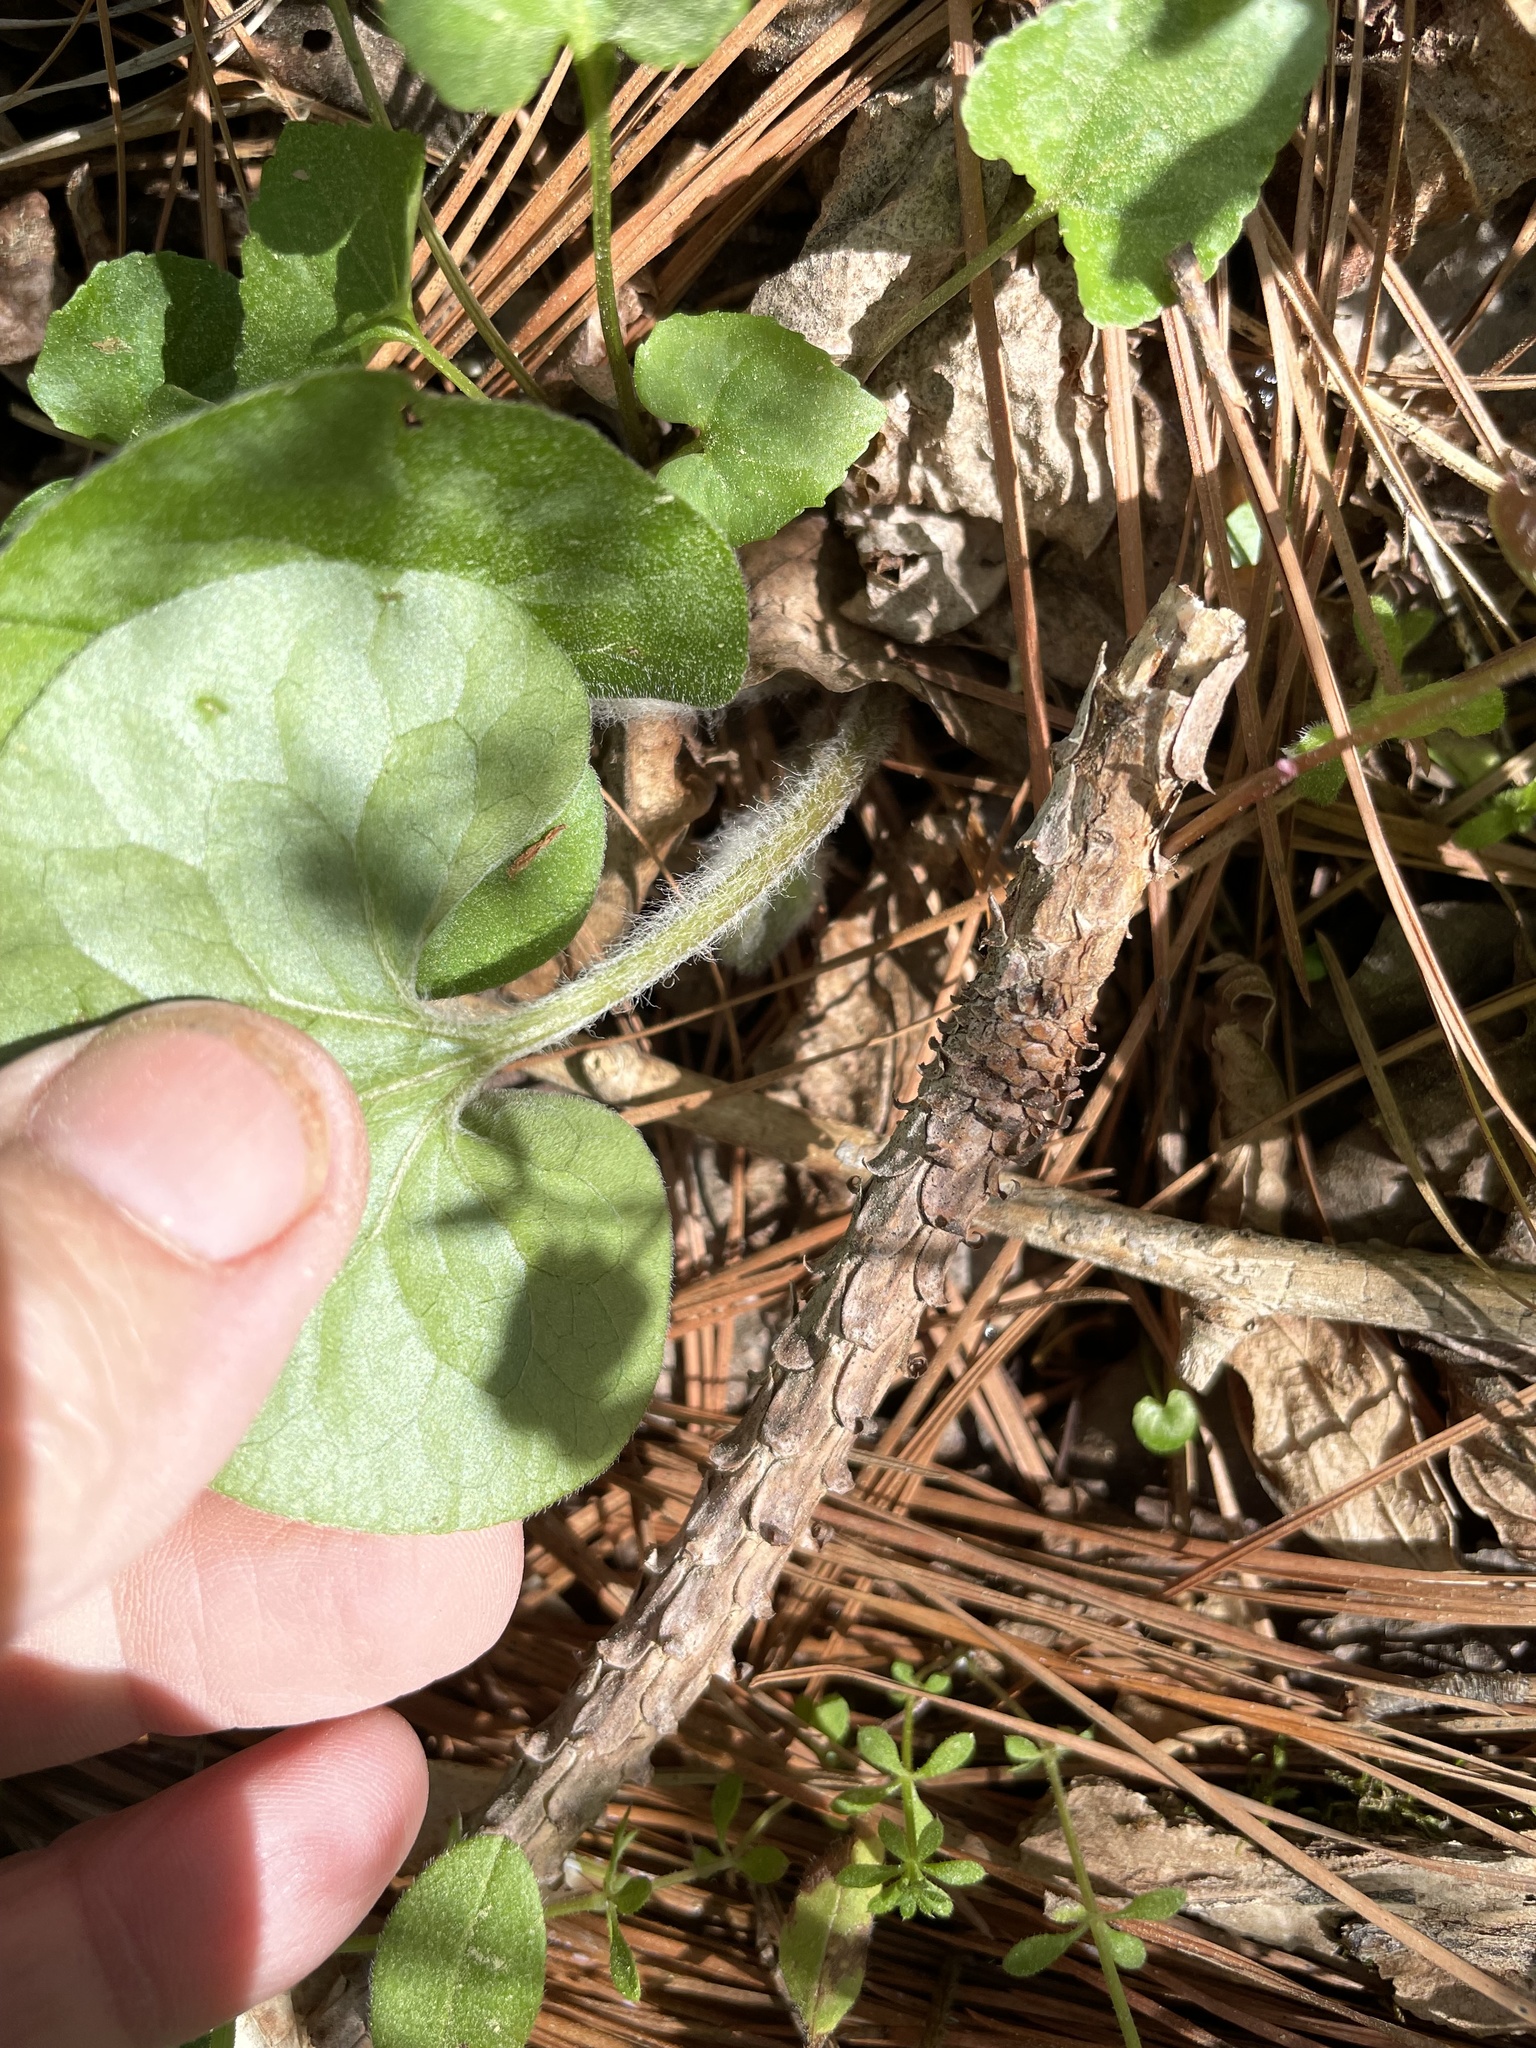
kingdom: Plantae
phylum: Tracheophyta
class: Magnoliopsida
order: Piperales
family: Aristolochiaceae
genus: Asarum
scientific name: Asarum canadense
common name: Wild ginger
